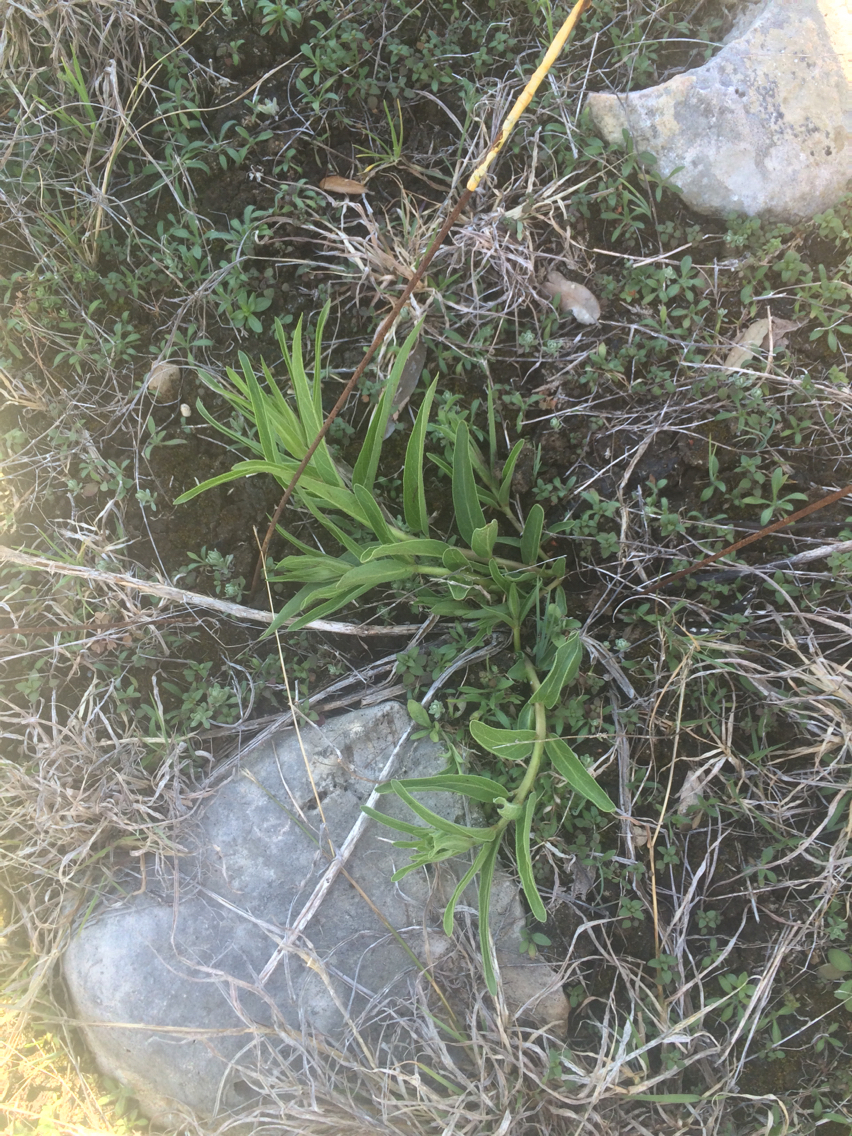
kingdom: Plantae
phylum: Tracheophyta
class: Magnoliopsida
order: Gentianales
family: Apocynaceae
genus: Asclepias
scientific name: Asclepias asperula
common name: Antelope horns
